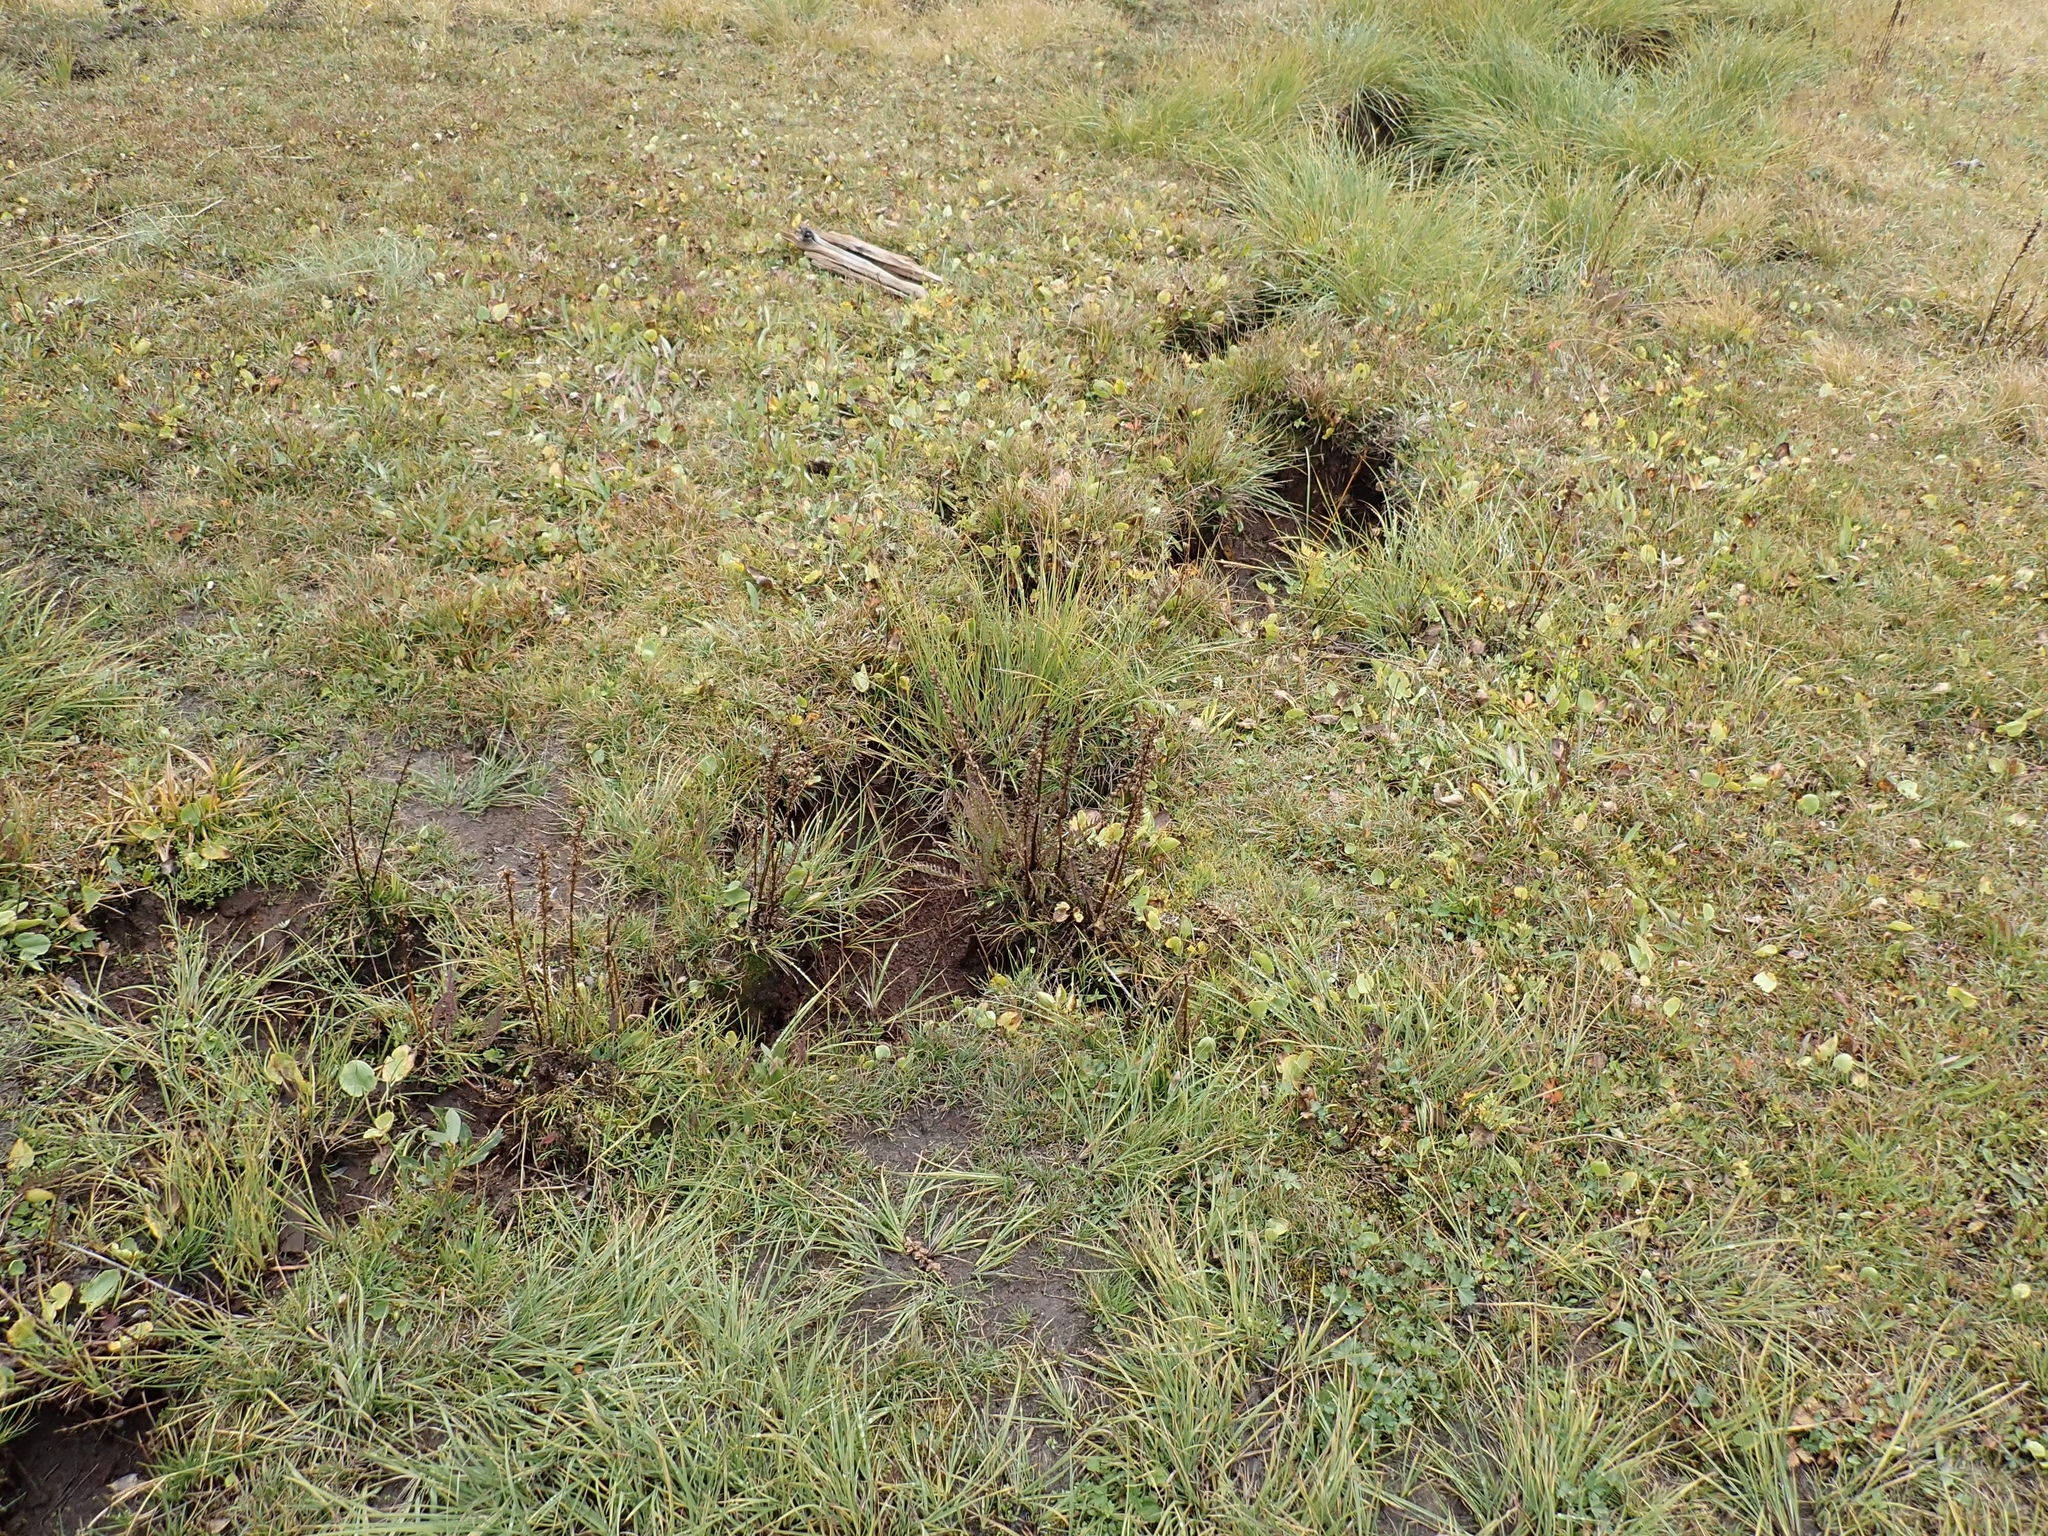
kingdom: Plantae
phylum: Tracheophyta
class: Magnoliopsida
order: Lamiales
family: Orobanchaceae
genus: Pedicularis
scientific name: Pedicularis groenlandica
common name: Elephant's-head
